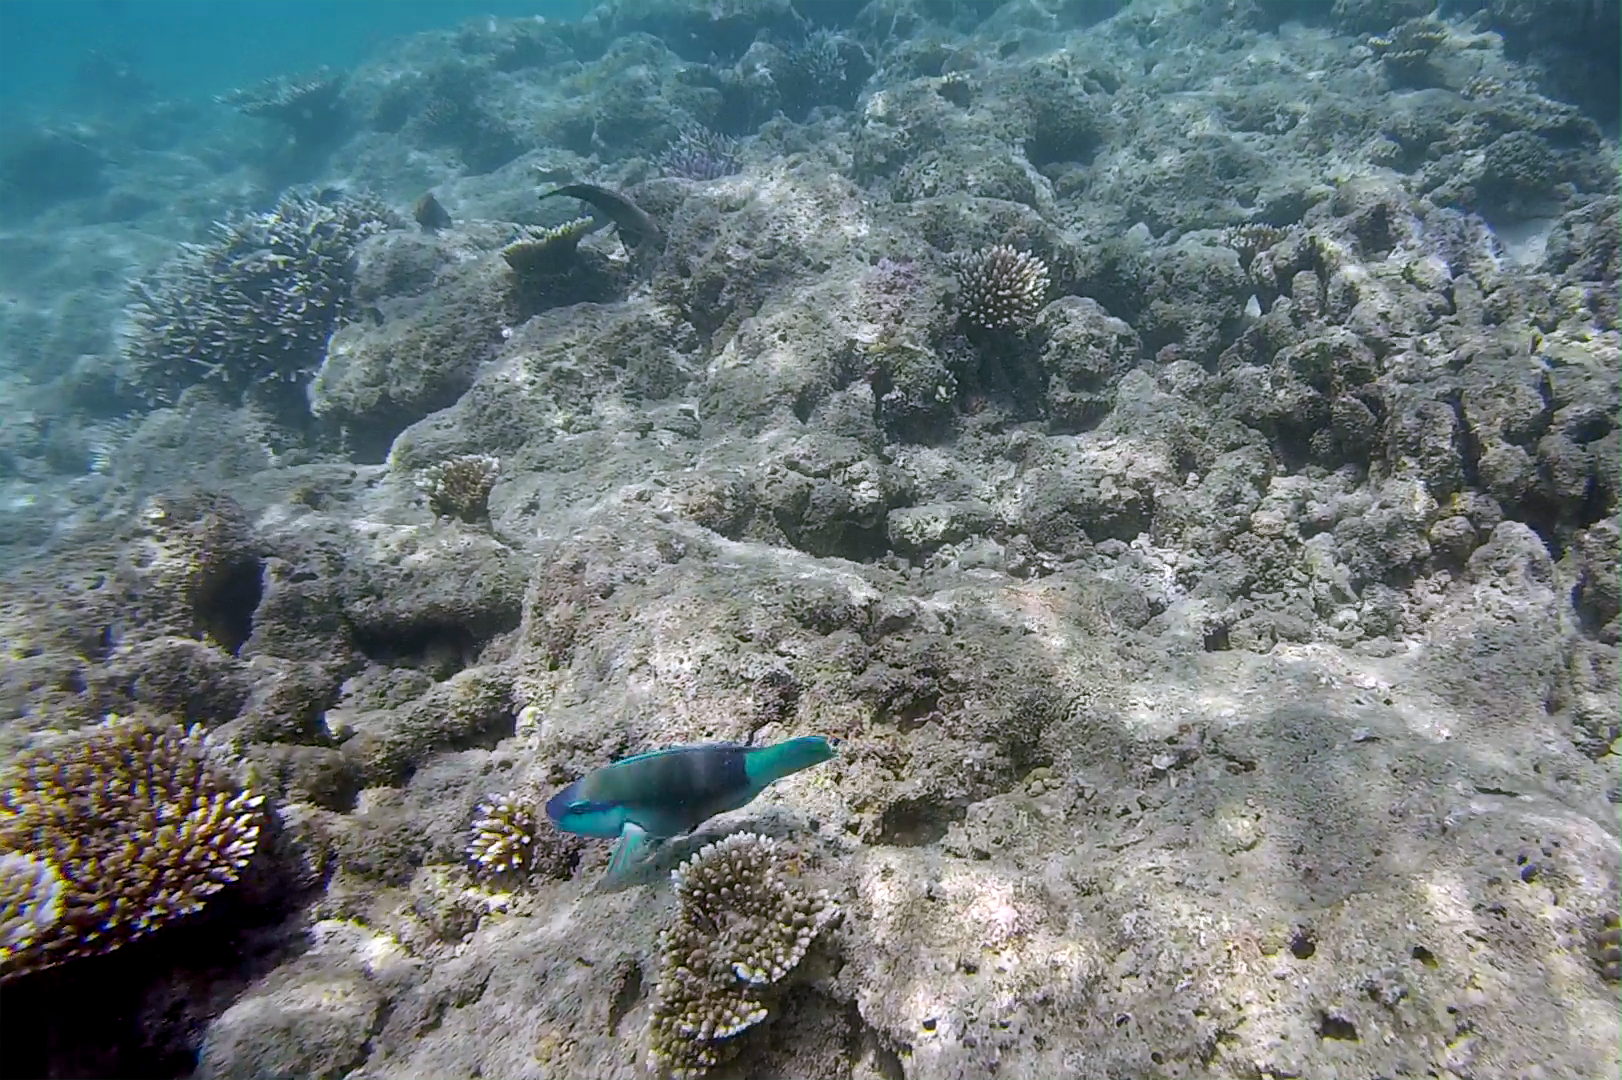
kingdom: Animalia
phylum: Chordata
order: Perciformes
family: Scaridae
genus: Chlorurus
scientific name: Chlorurus sordidus
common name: Bullethead parrotfish
